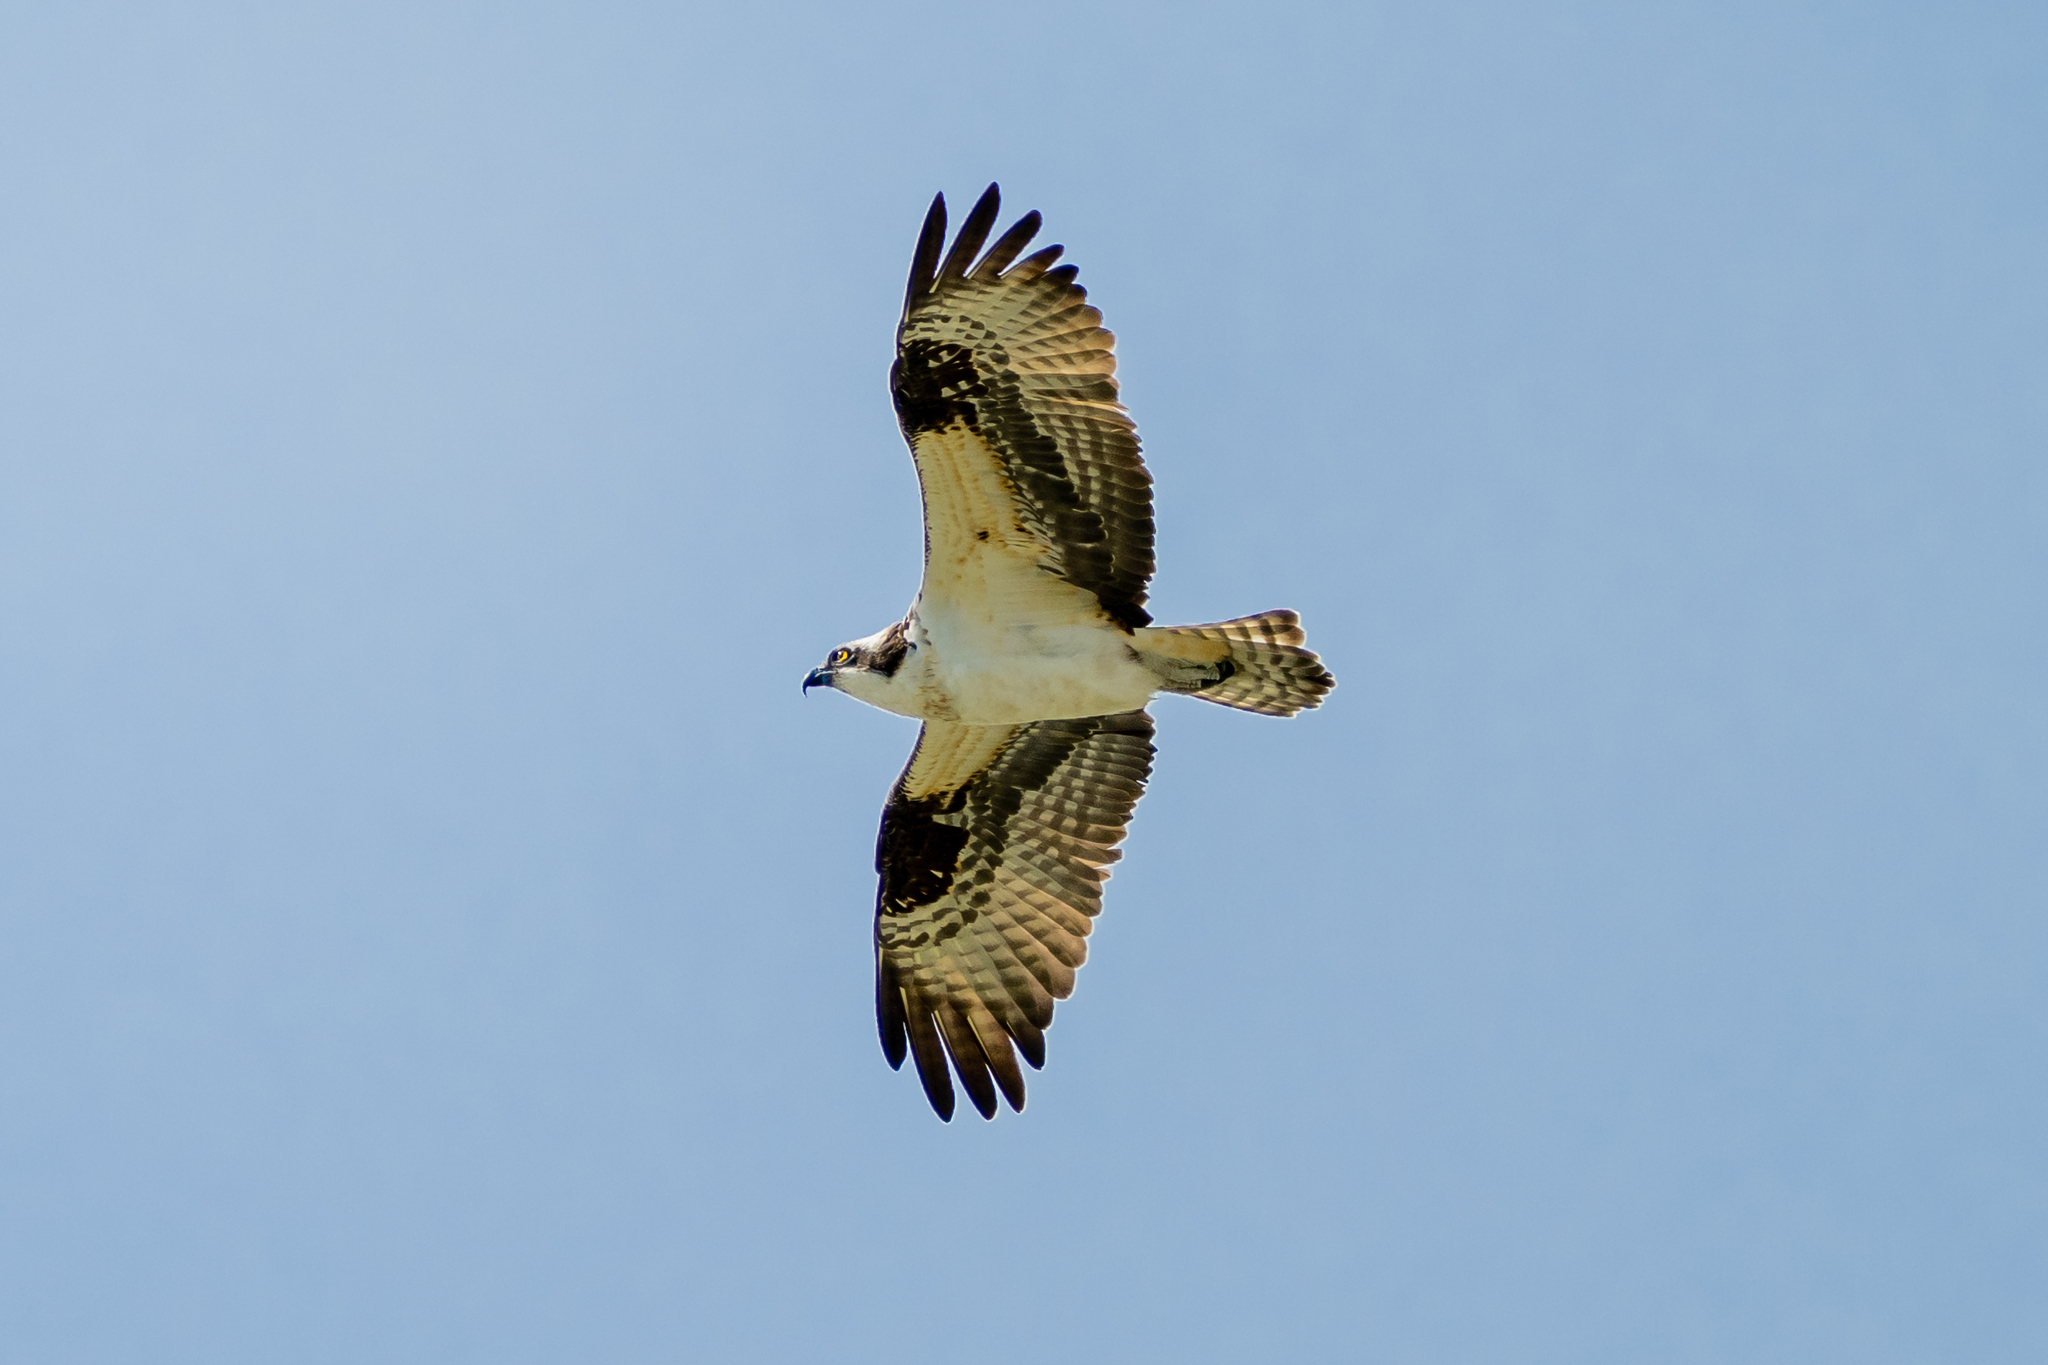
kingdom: Animalia
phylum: Chordata
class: Aves
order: Accipitriformes
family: Pandionidae
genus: Pandion
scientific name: Pandion haliaetus
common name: Osprey
